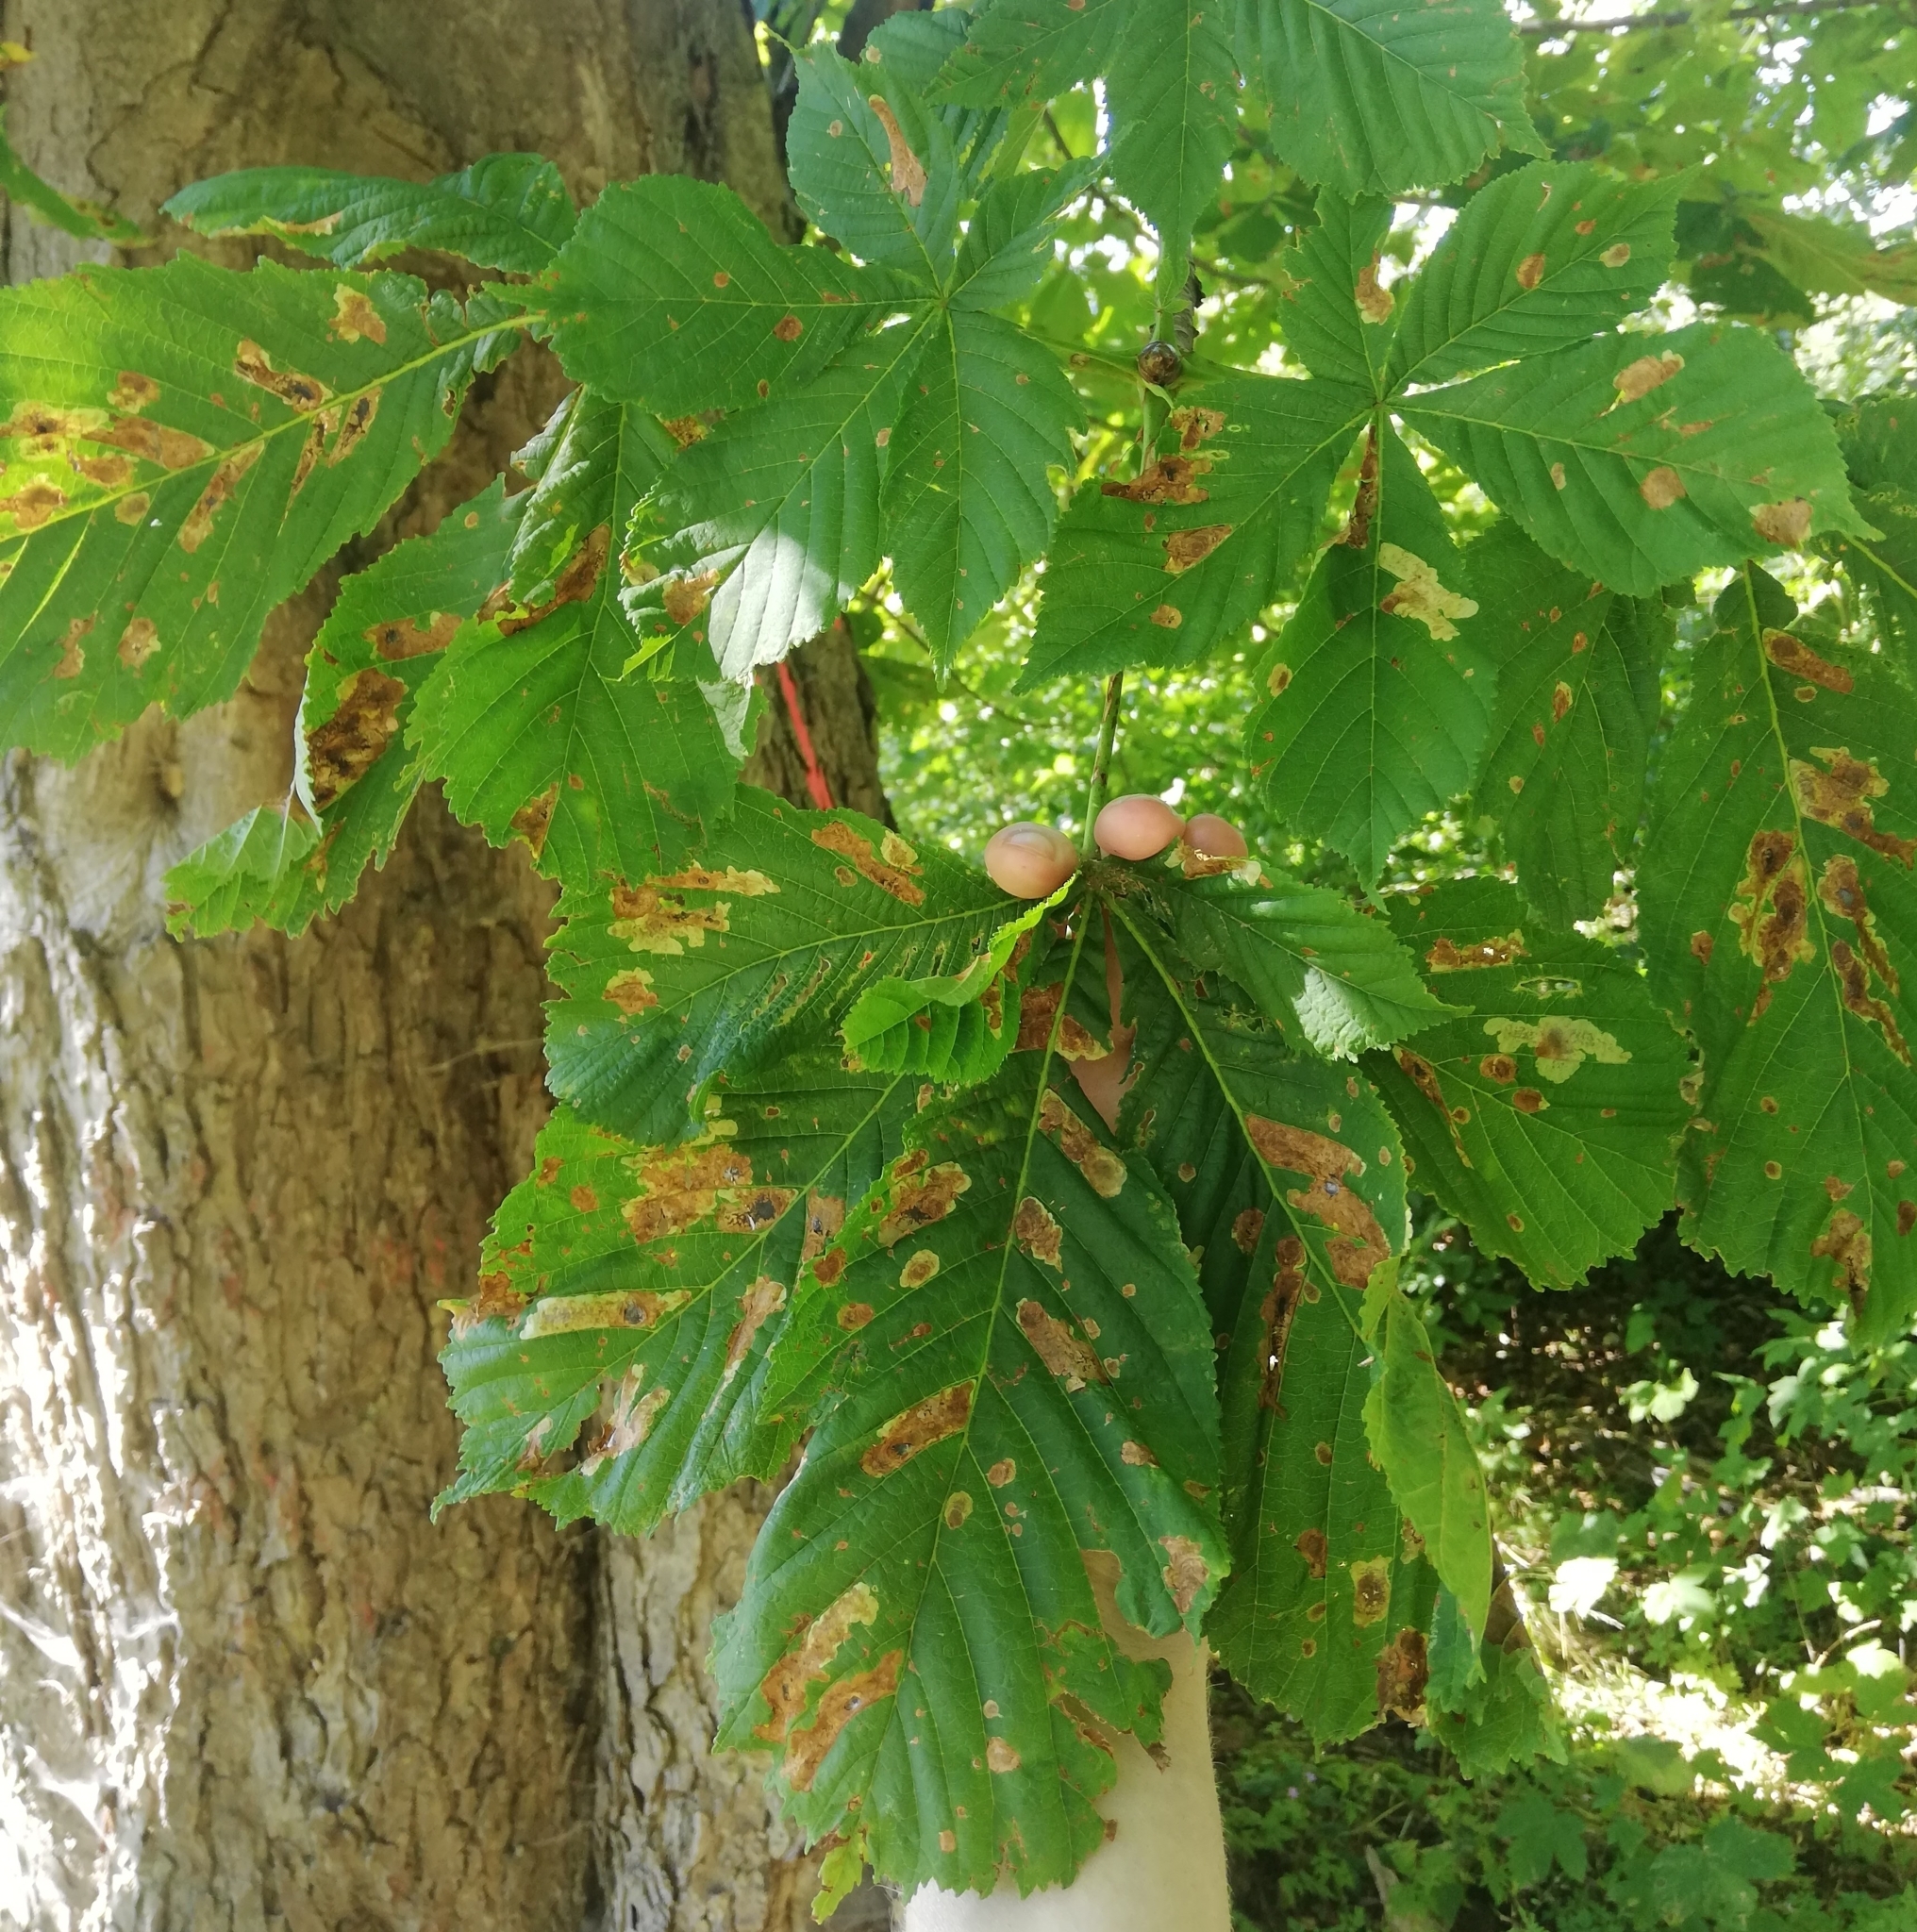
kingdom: Animalia
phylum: Arthropoda
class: Insecta
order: Lepidoptera
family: Gracillariidae
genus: Cameraria
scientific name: Cameraria ohridella
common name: Horse-chestnut leaf-miner
